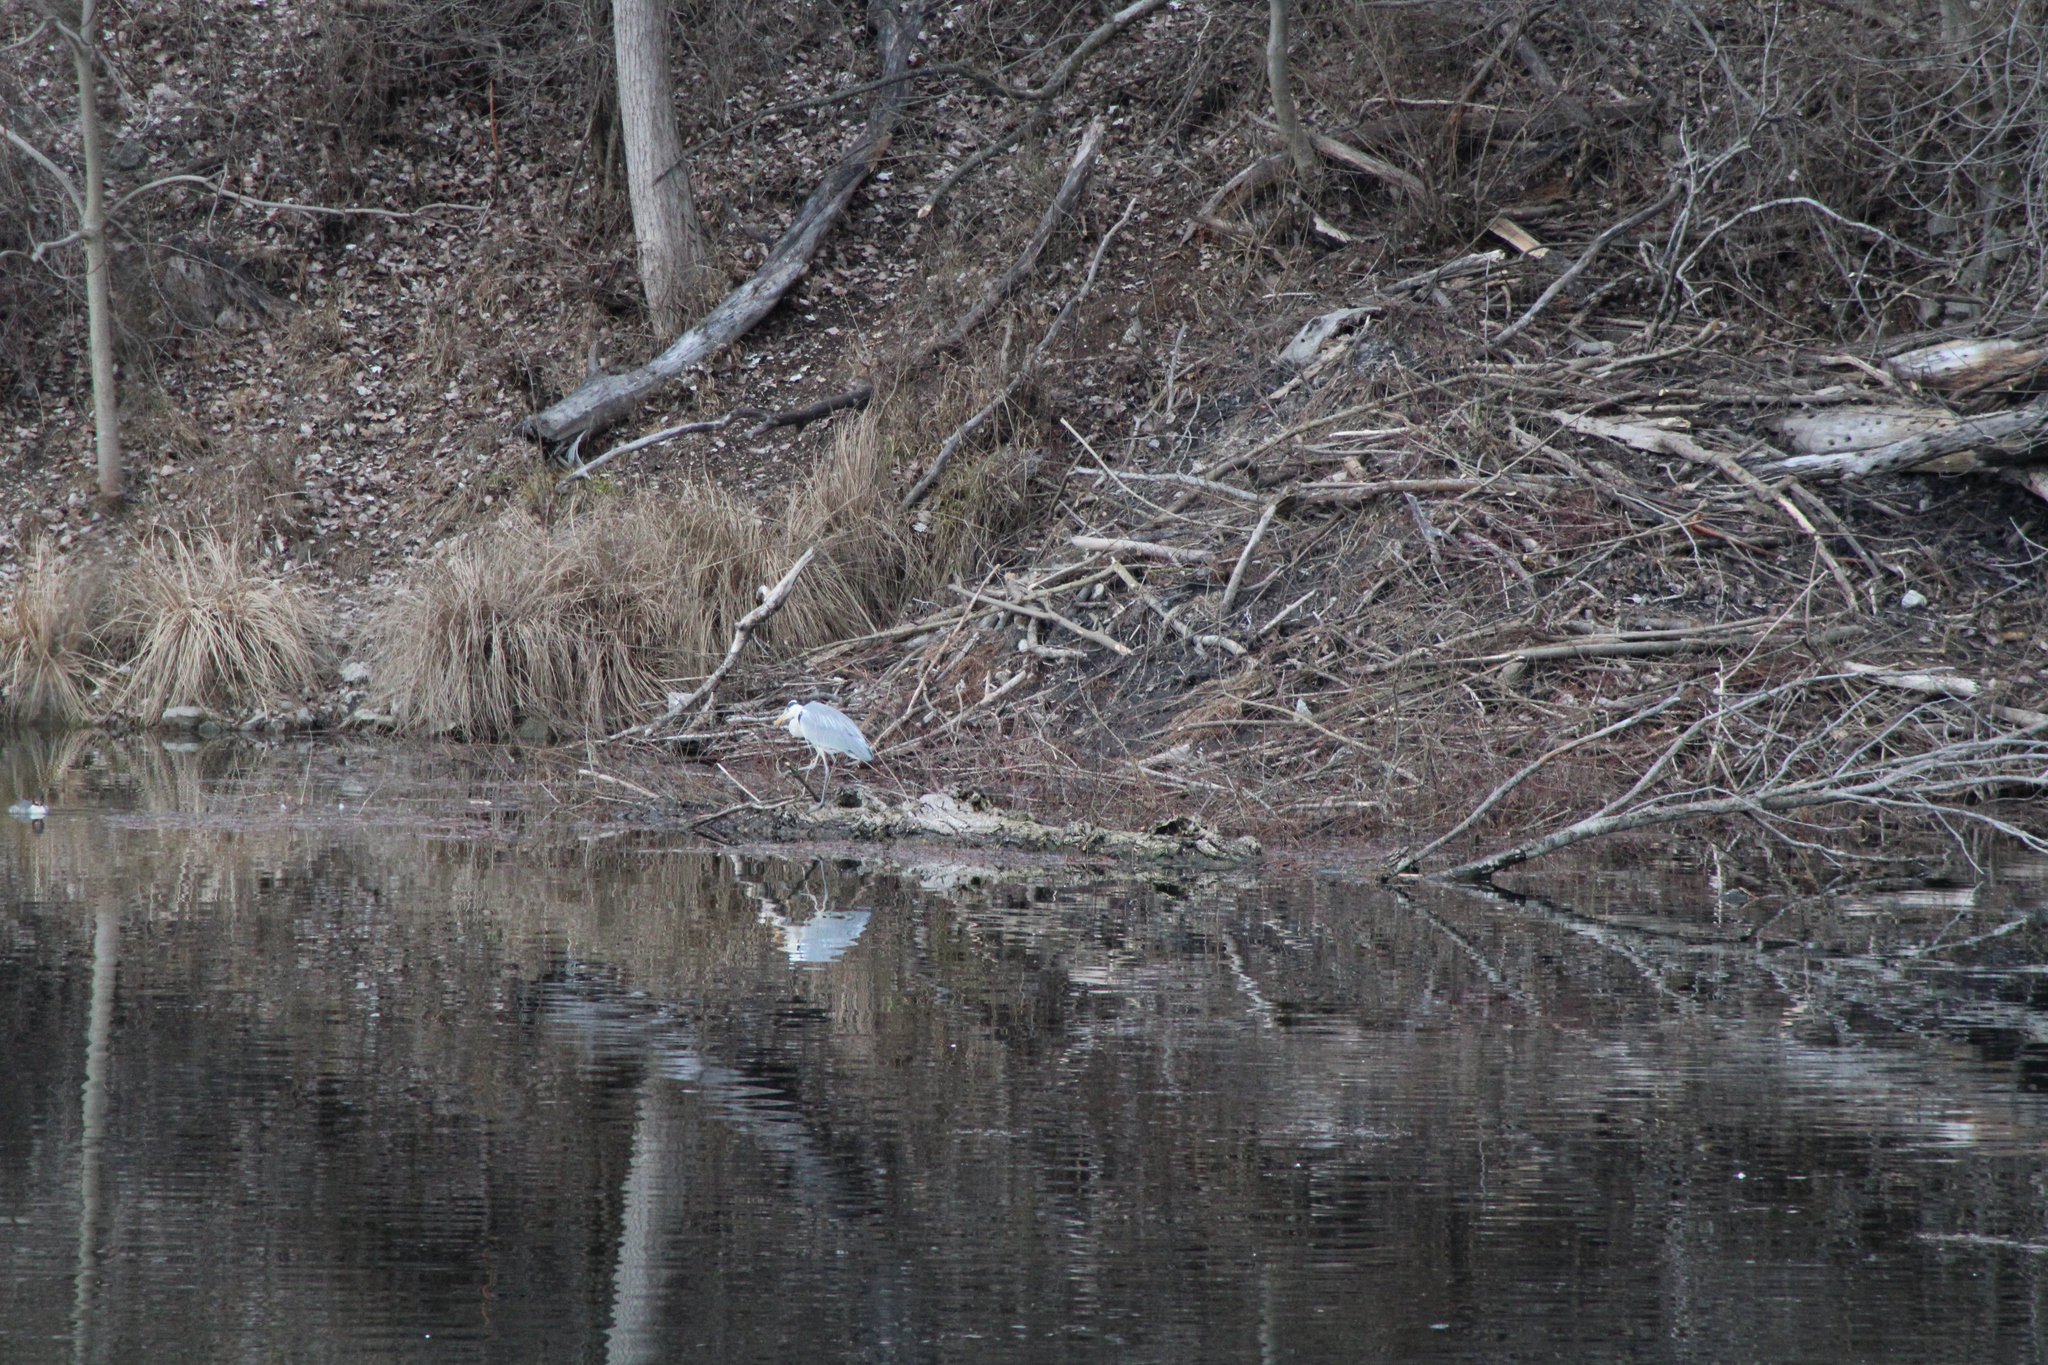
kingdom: Animalia
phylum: Chordata
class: Aves
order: Pelecaniformes
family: Ardeidae
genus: Ardea
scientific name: Ardea cinerea
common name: Grey heron
